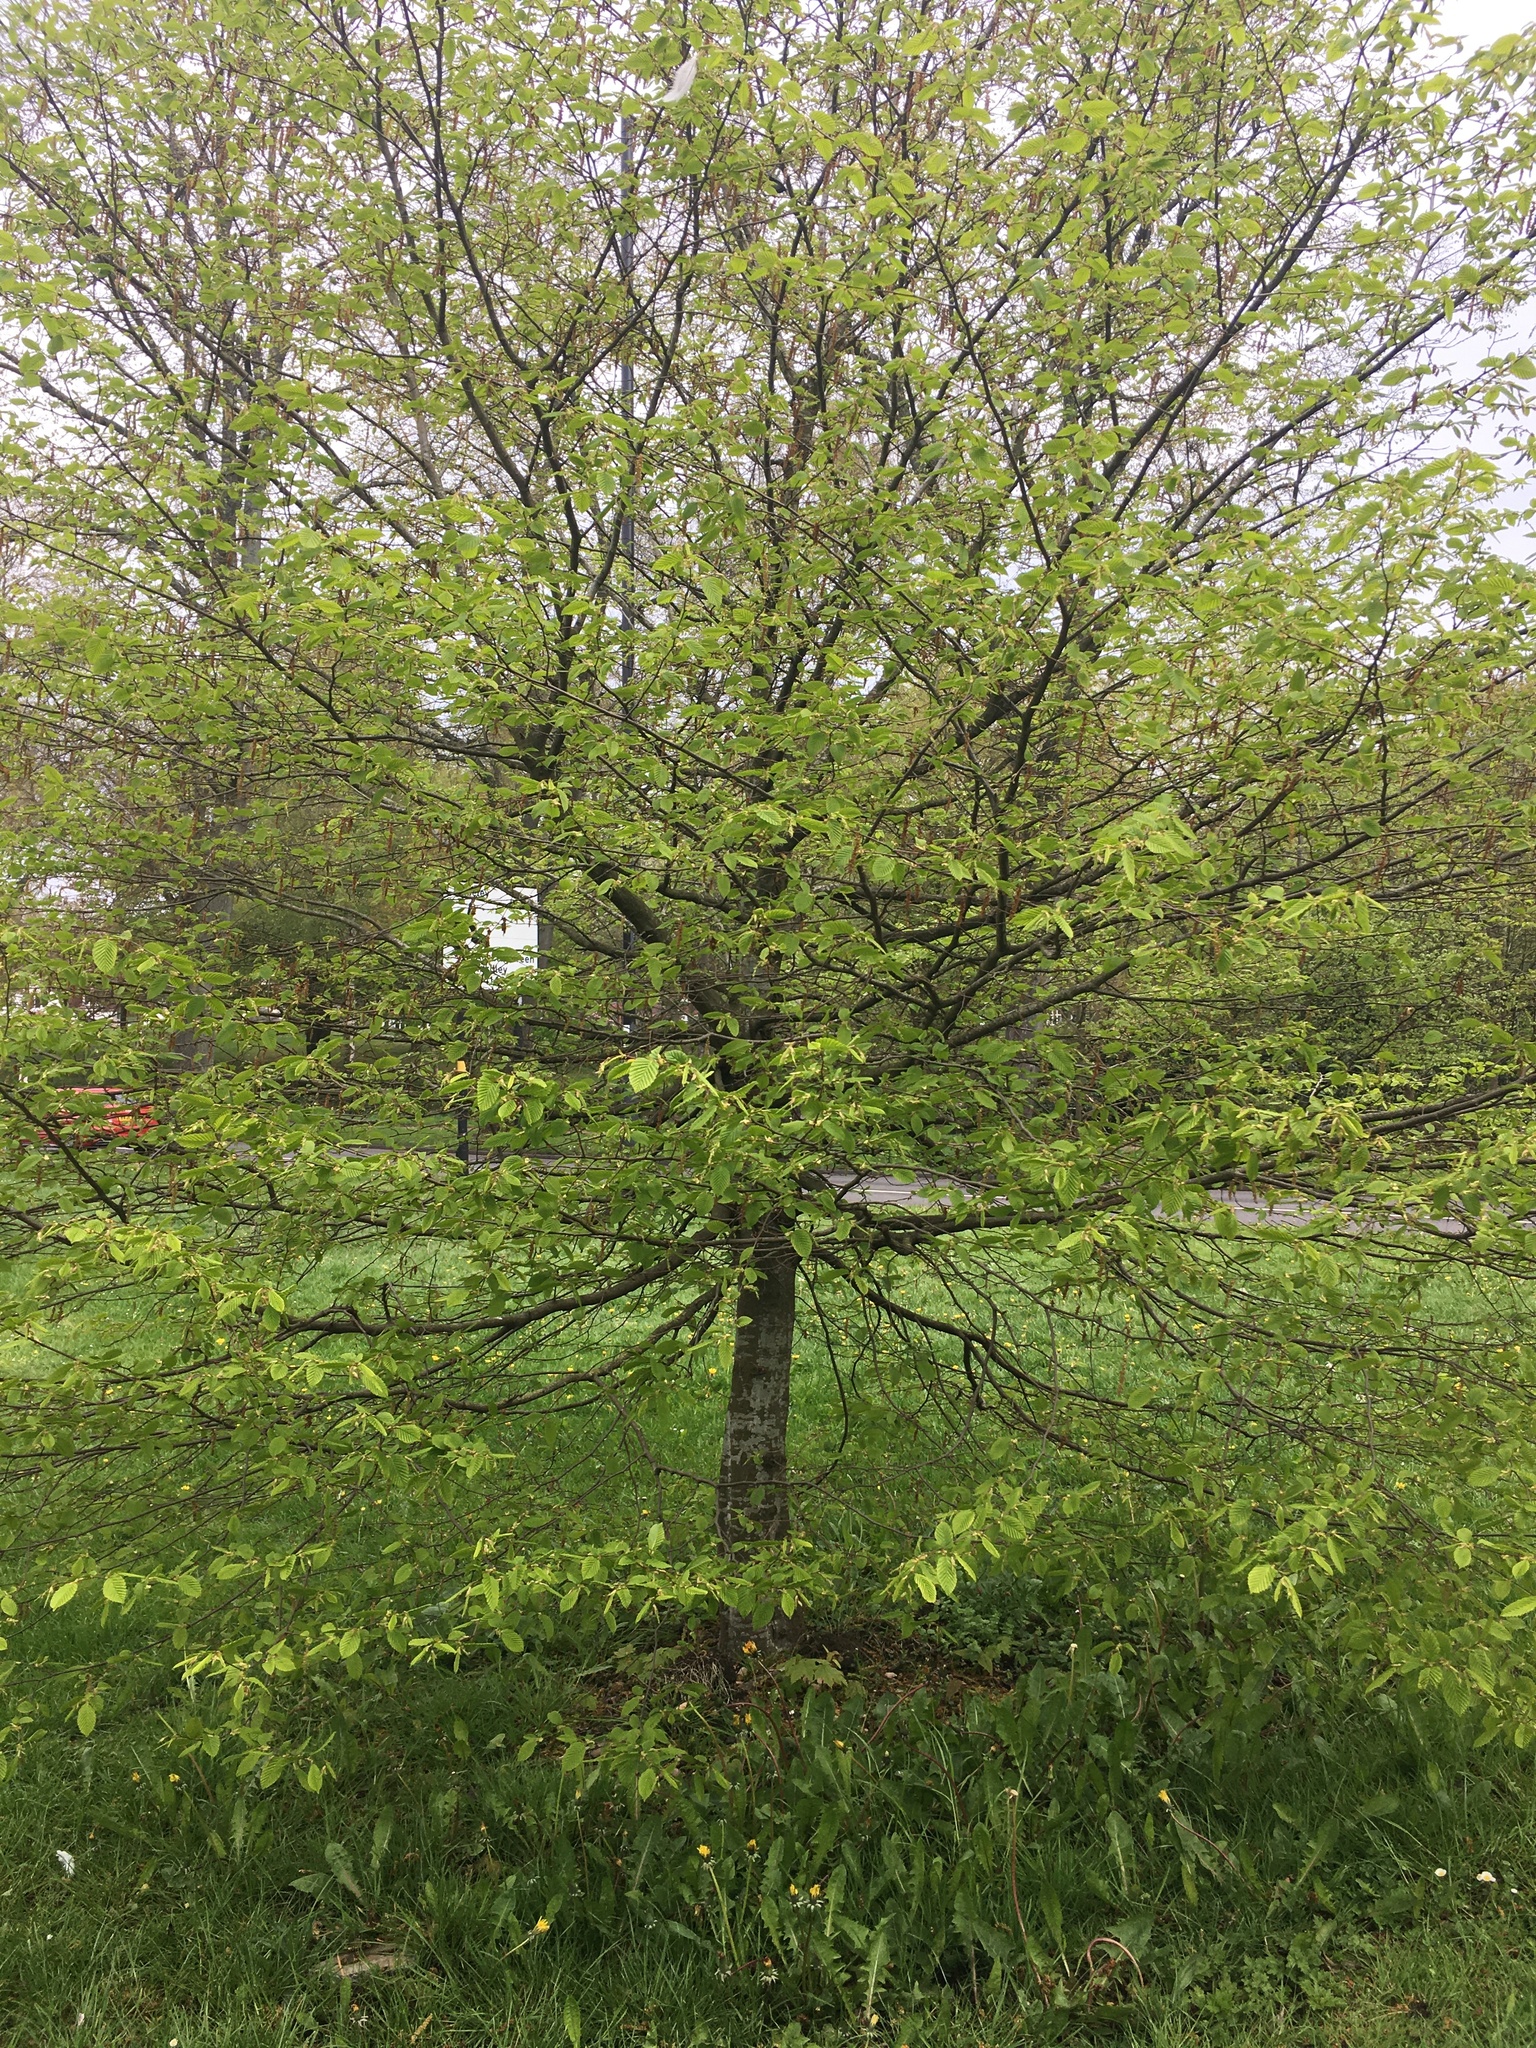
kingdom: Plantae
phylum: Tracheophyta
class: Magnoliopsida
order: Fagales
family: Betulaceae
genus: Carpinus
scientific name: Carpinus betulus
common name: Hornbeam
